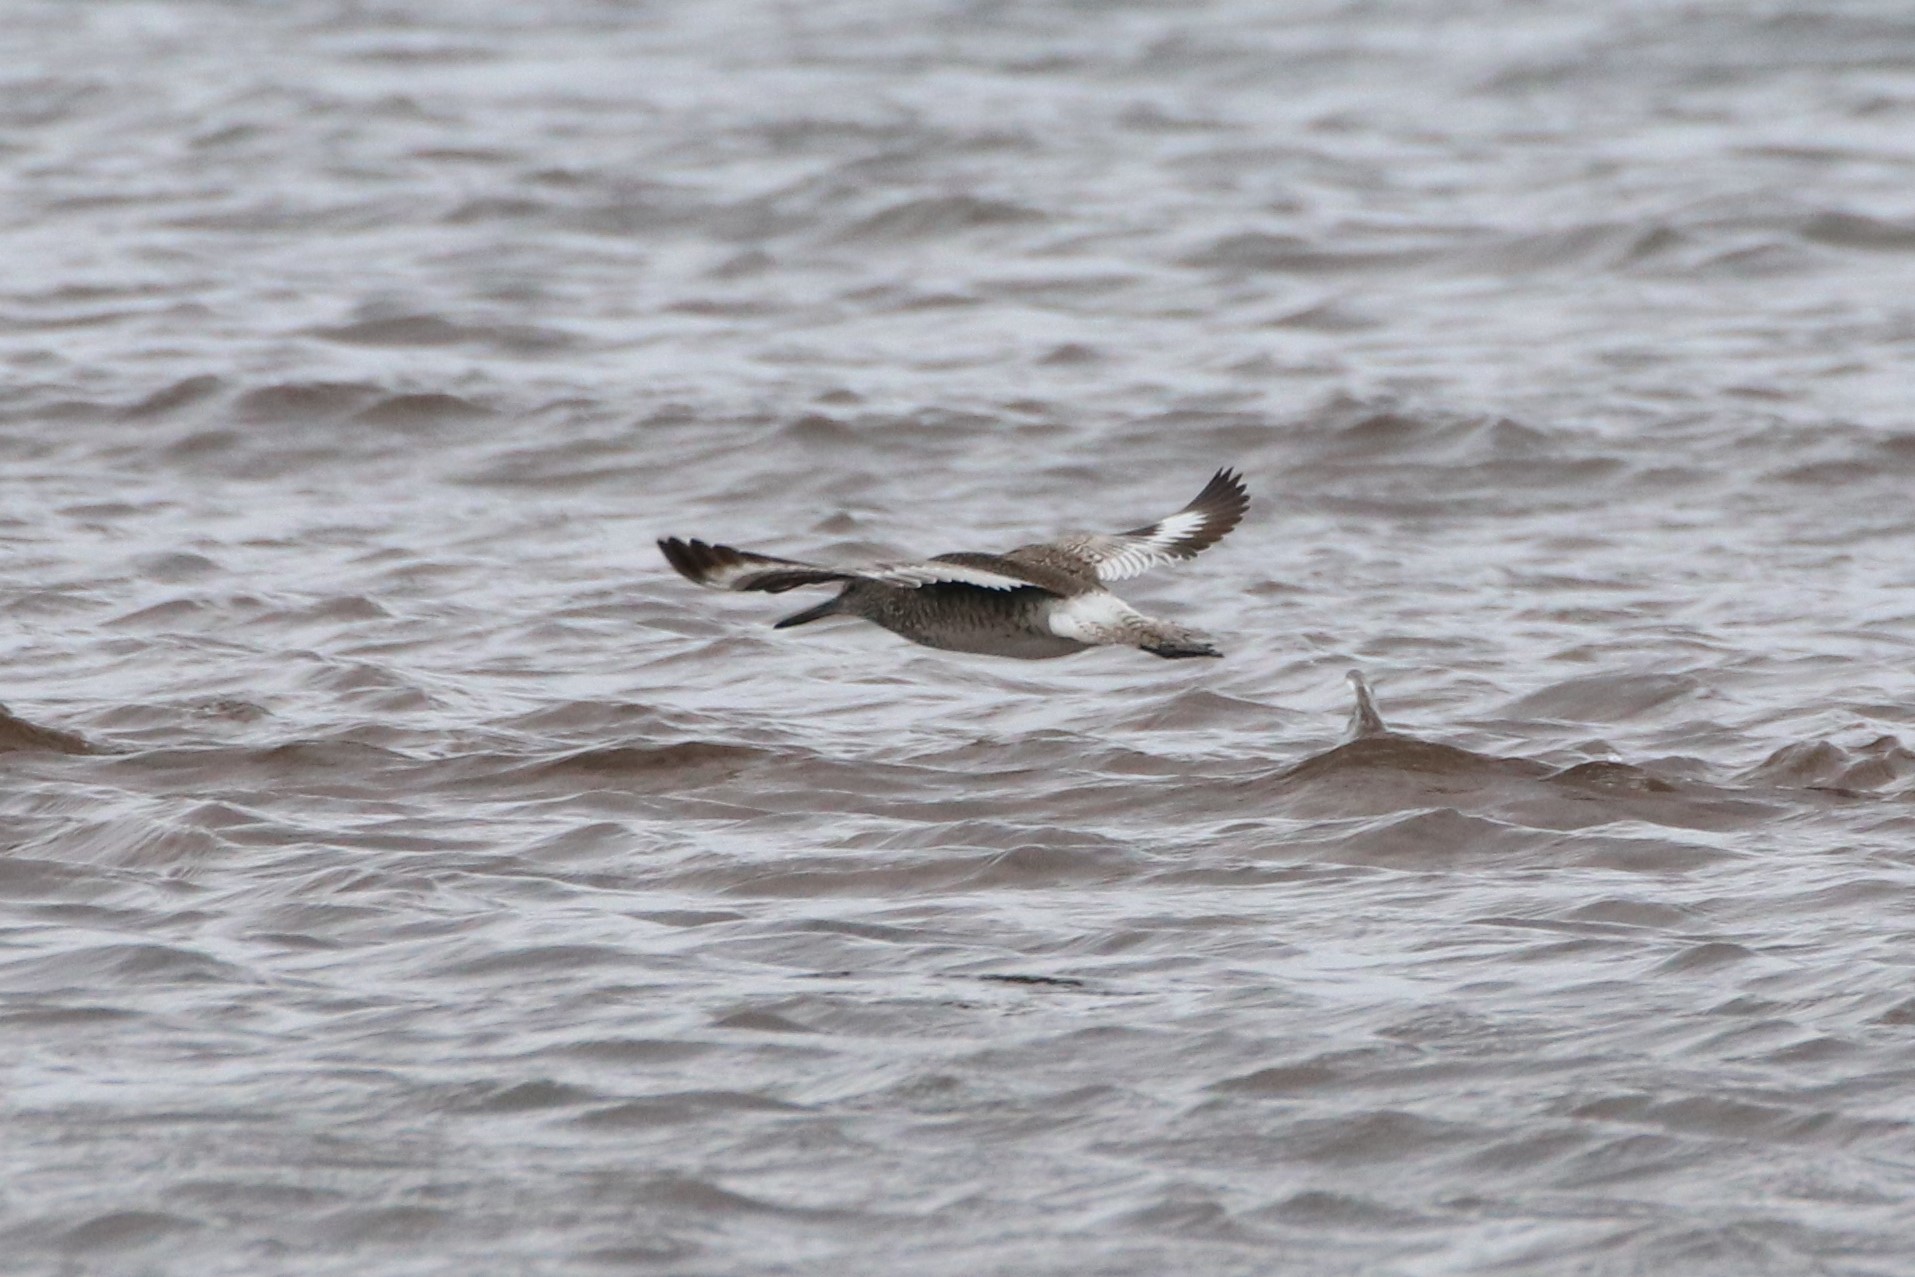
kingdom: Animalia
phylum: Chordata
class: Aves
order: Charadriiformes
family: Scolopacidae
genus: Tringa
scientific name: Tringa semipalmata
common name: Willet
